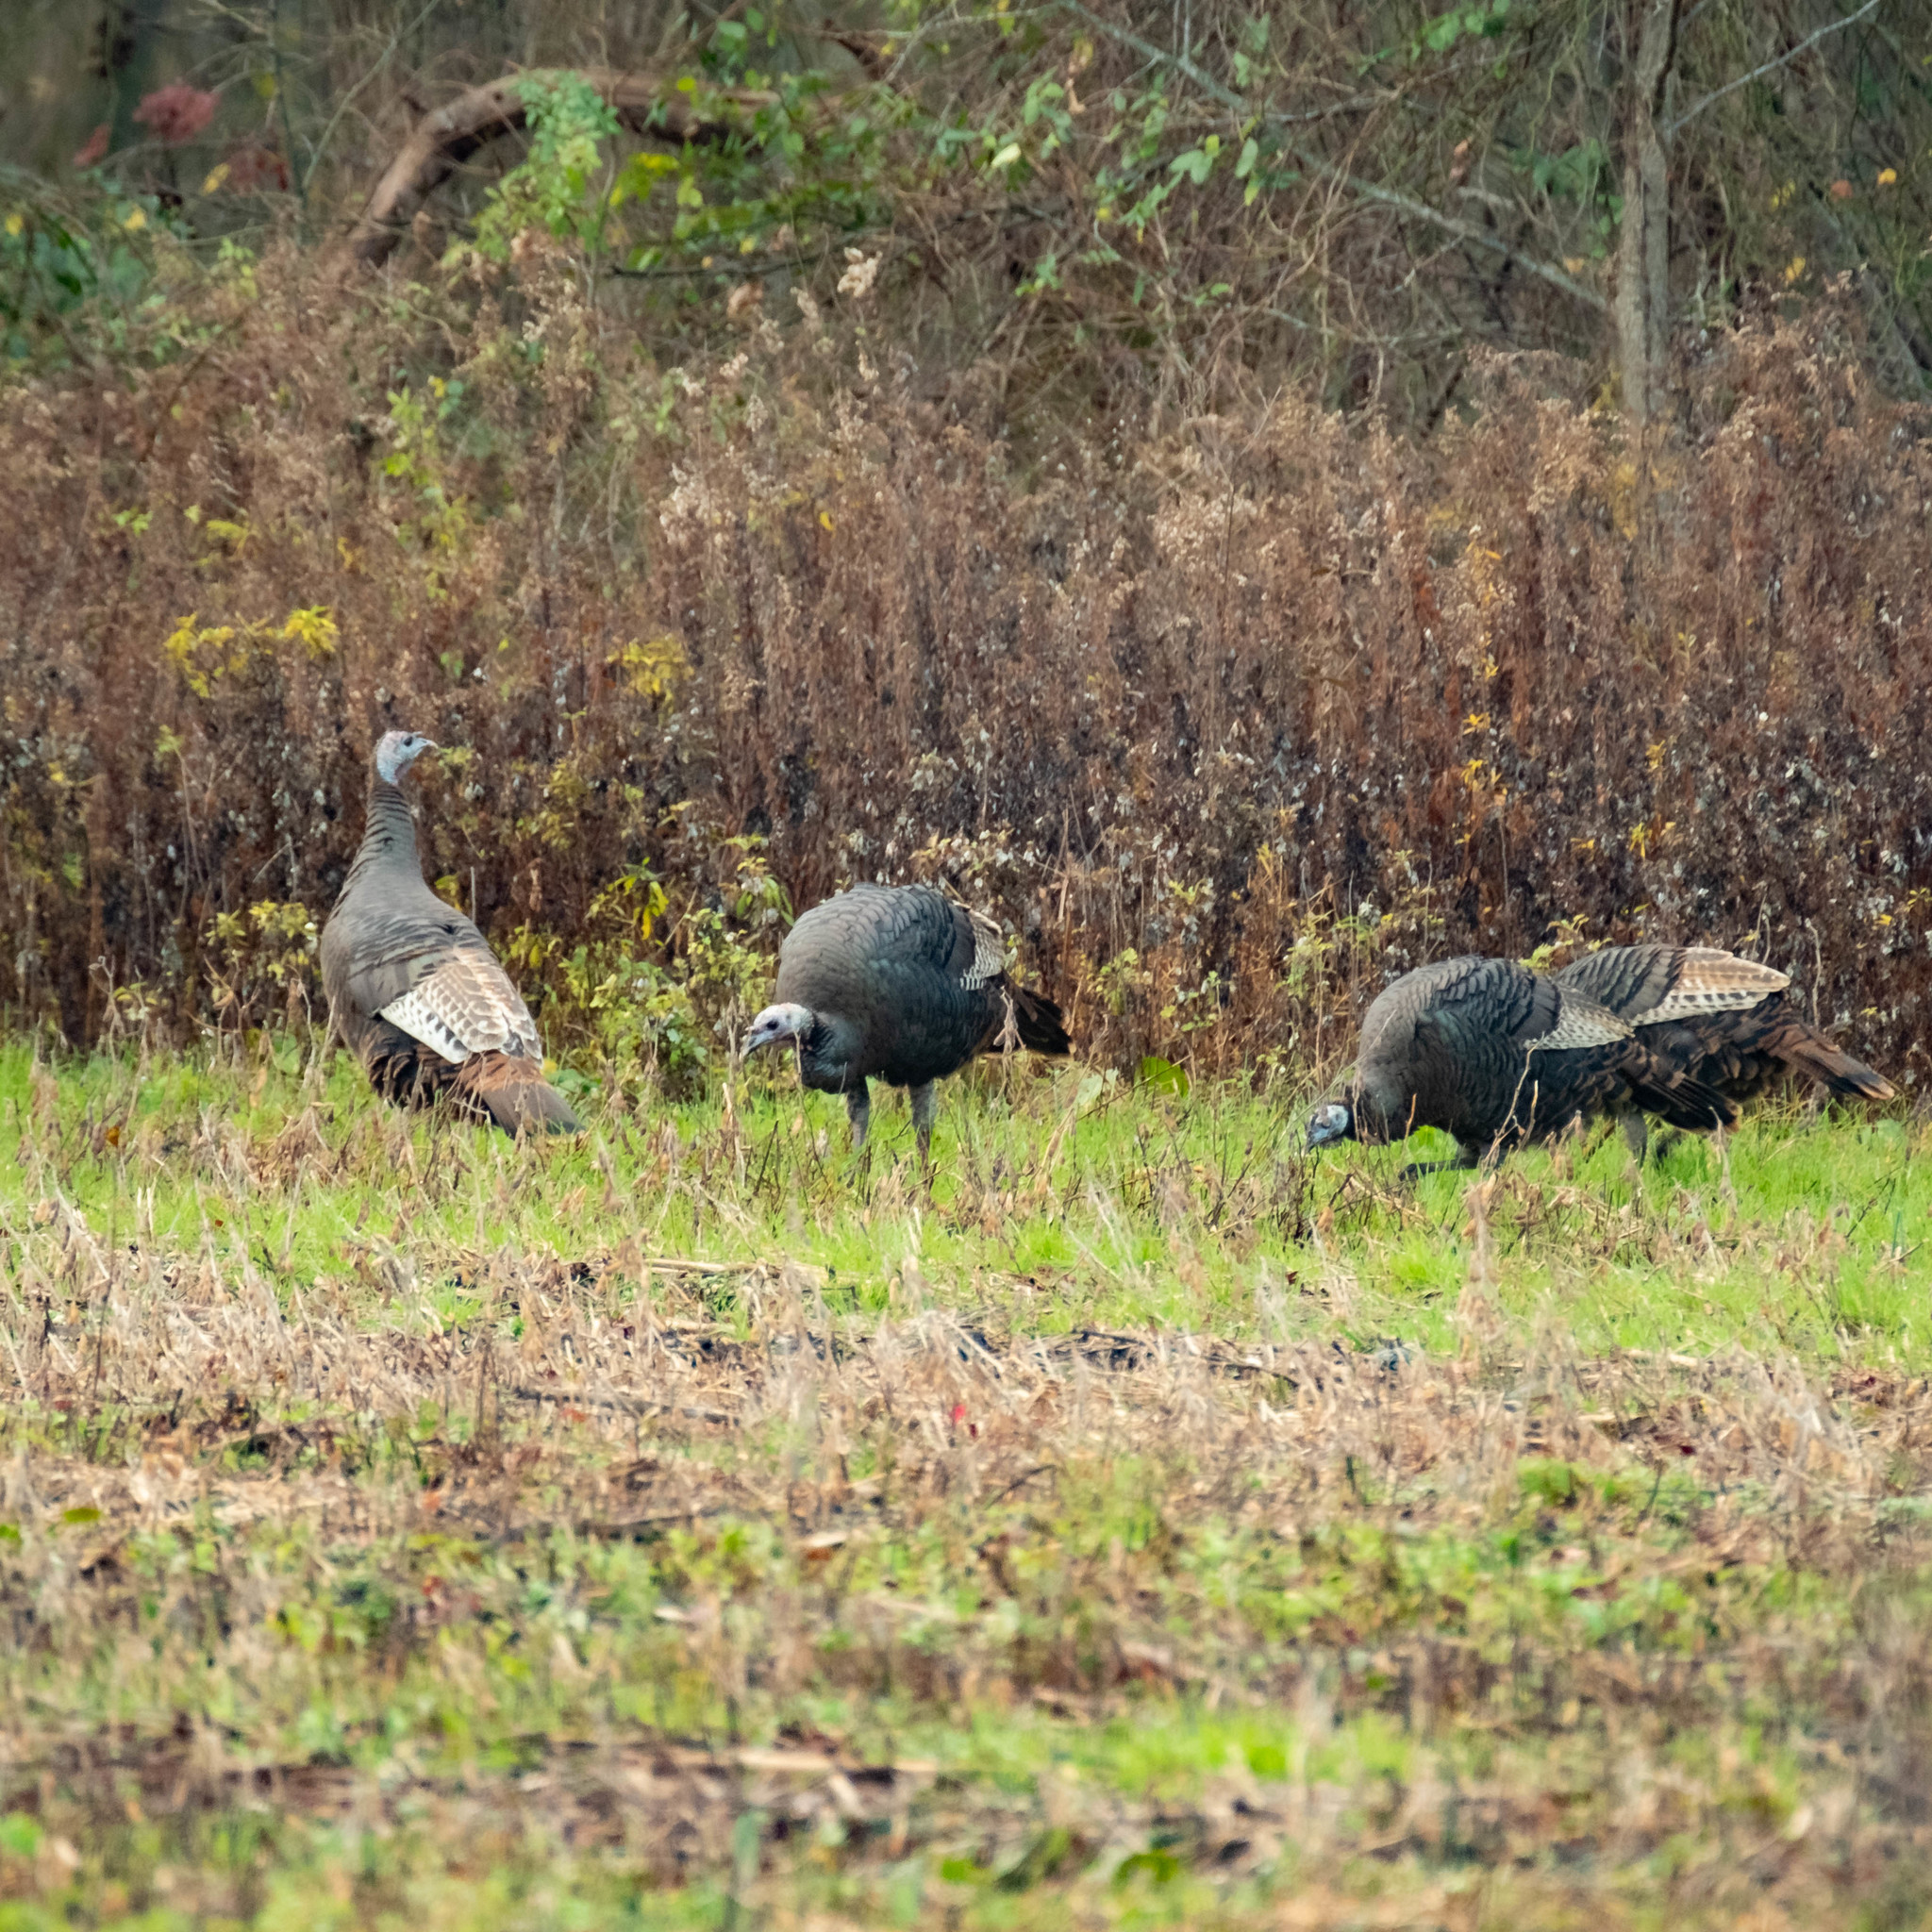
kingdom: Animalia
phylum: Chordata
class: Aves
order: Galliformes
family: Phasianidae
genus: Meleagris
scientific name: Meleagris gallopavo
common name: Wild turkey
